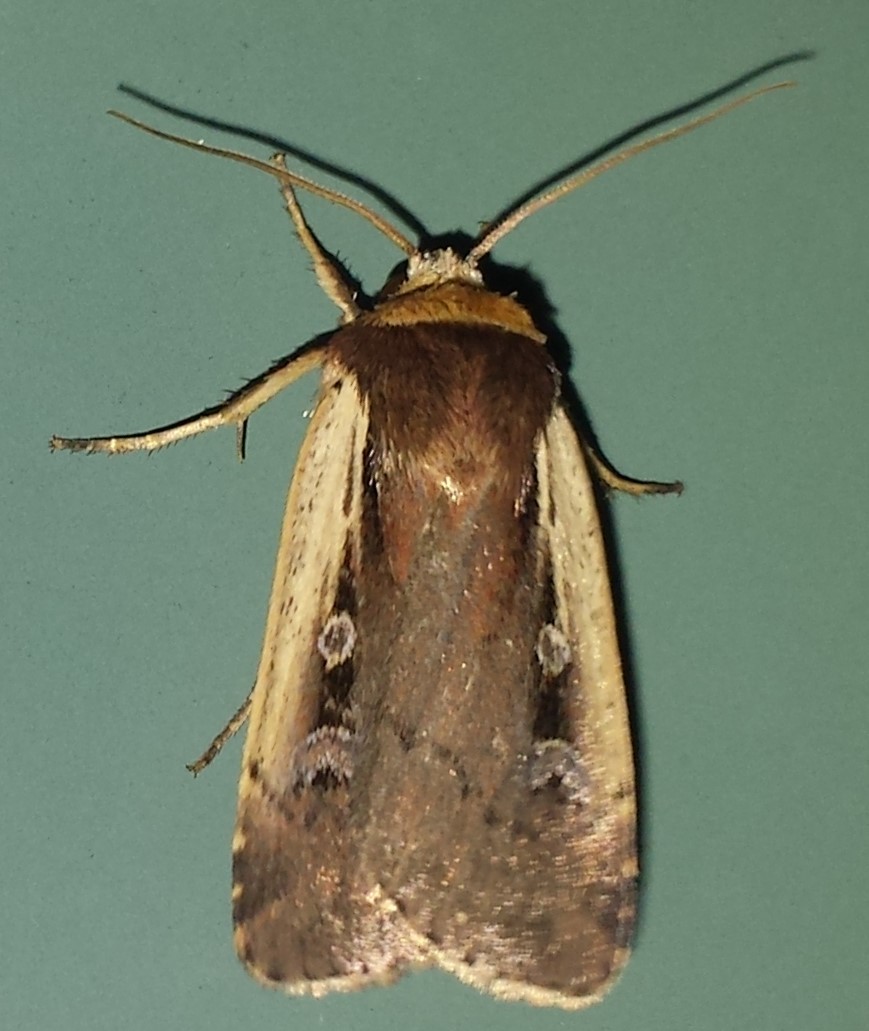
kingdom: Animalia
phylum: Arthropoda
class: Insecta
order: Lepidoptera
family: Noctuidae
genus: Ochropleura
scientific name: Ochropleura implecta
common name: Flame-shouldered dart
